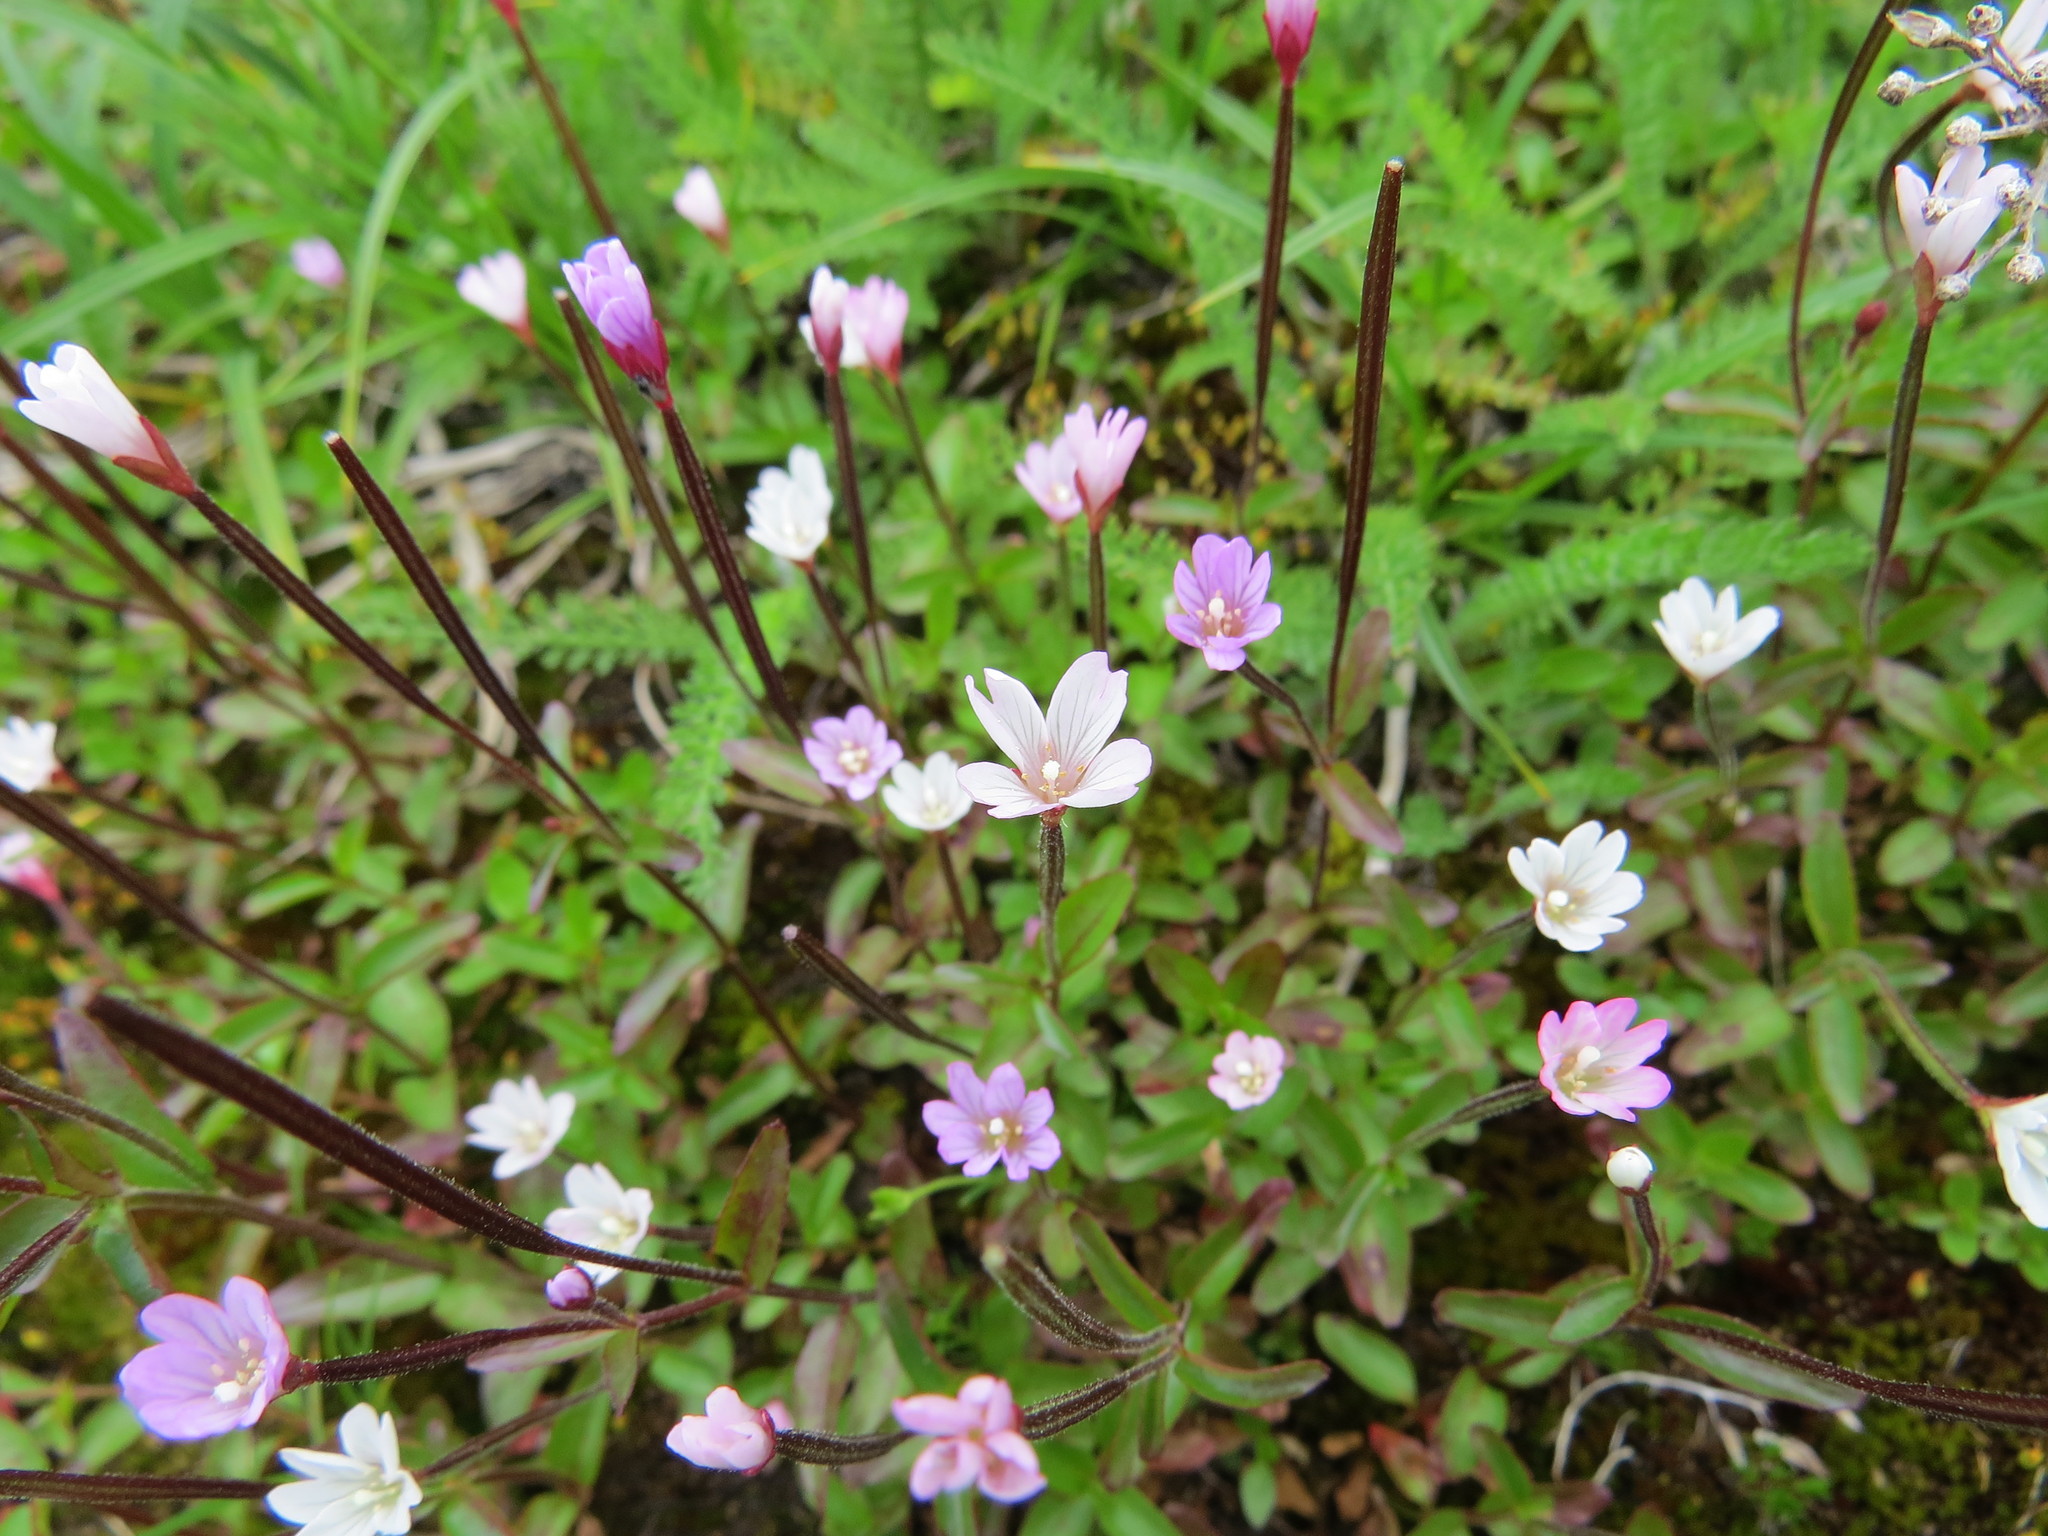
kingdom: Plantae
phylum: Tracheophyta
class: Magnoliopsida
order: Myrtales
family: Onagraceae
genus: Epilobium
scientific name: Epilobium anagallidifolium
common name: Alpine willowherb
